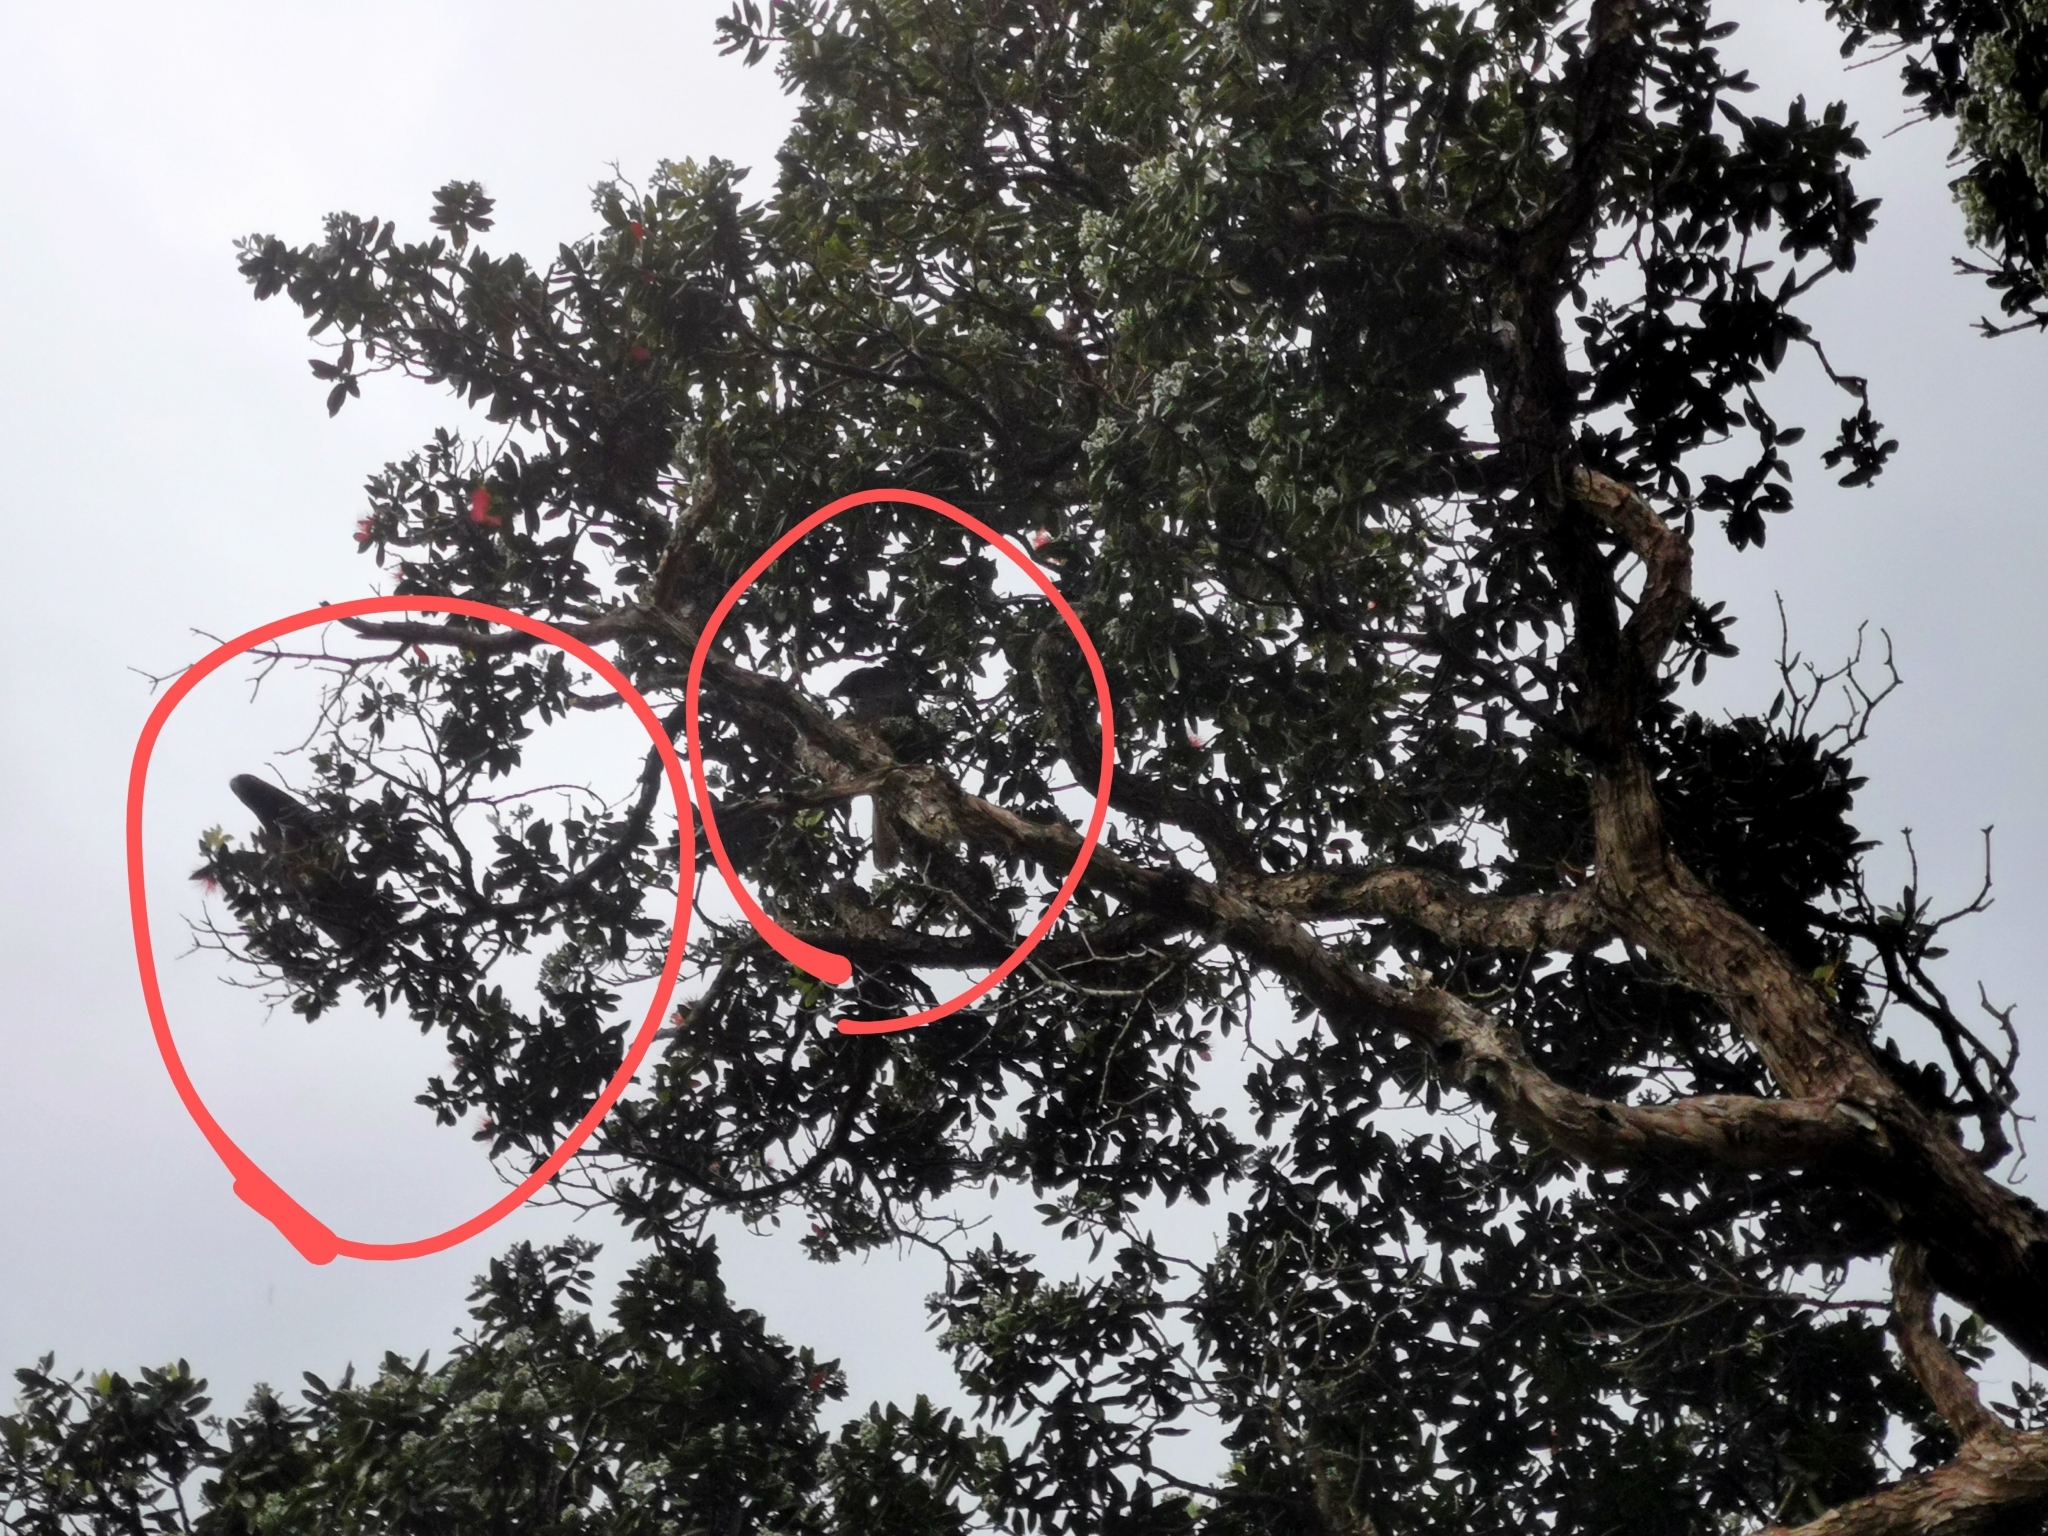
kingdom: Animalia
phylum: Chordata
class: Aves
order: Psittaciformes
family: Psittacidae
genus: Nestor
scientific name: Nestor meridionalis
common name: New zealand kaka
